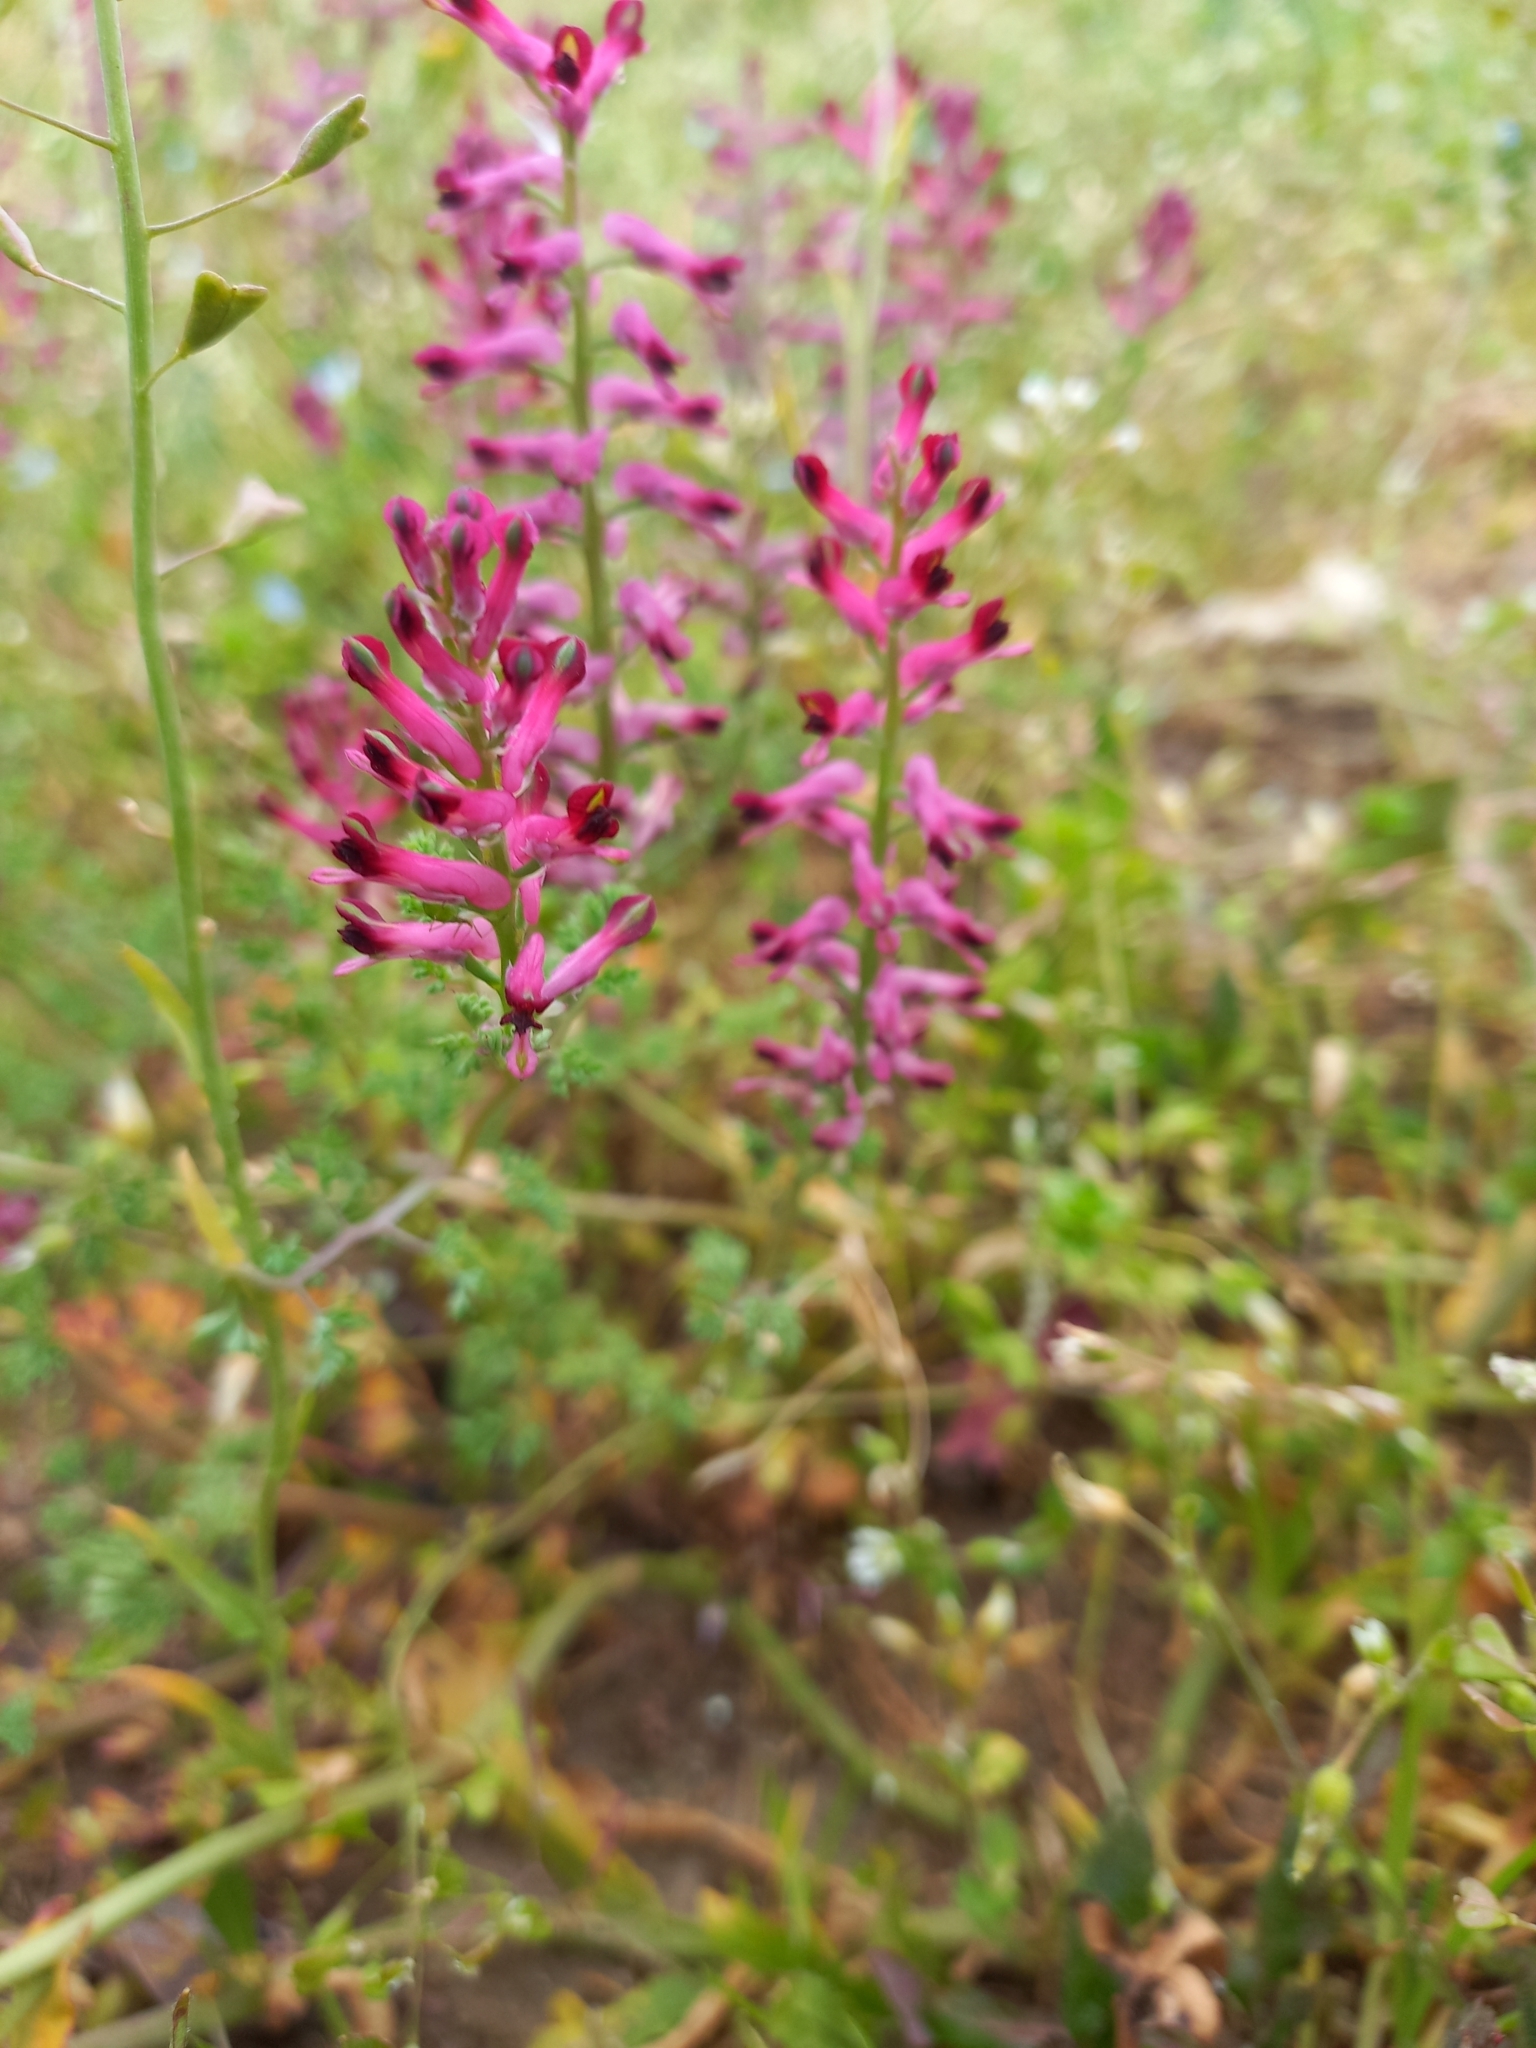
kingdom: Plantae
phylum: Tracheophyta
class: Magnoliopsida
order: Ranunculales
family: Papaveraceae
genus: Fumaria
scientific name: Fumaria officinalis
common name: Common fumitory
